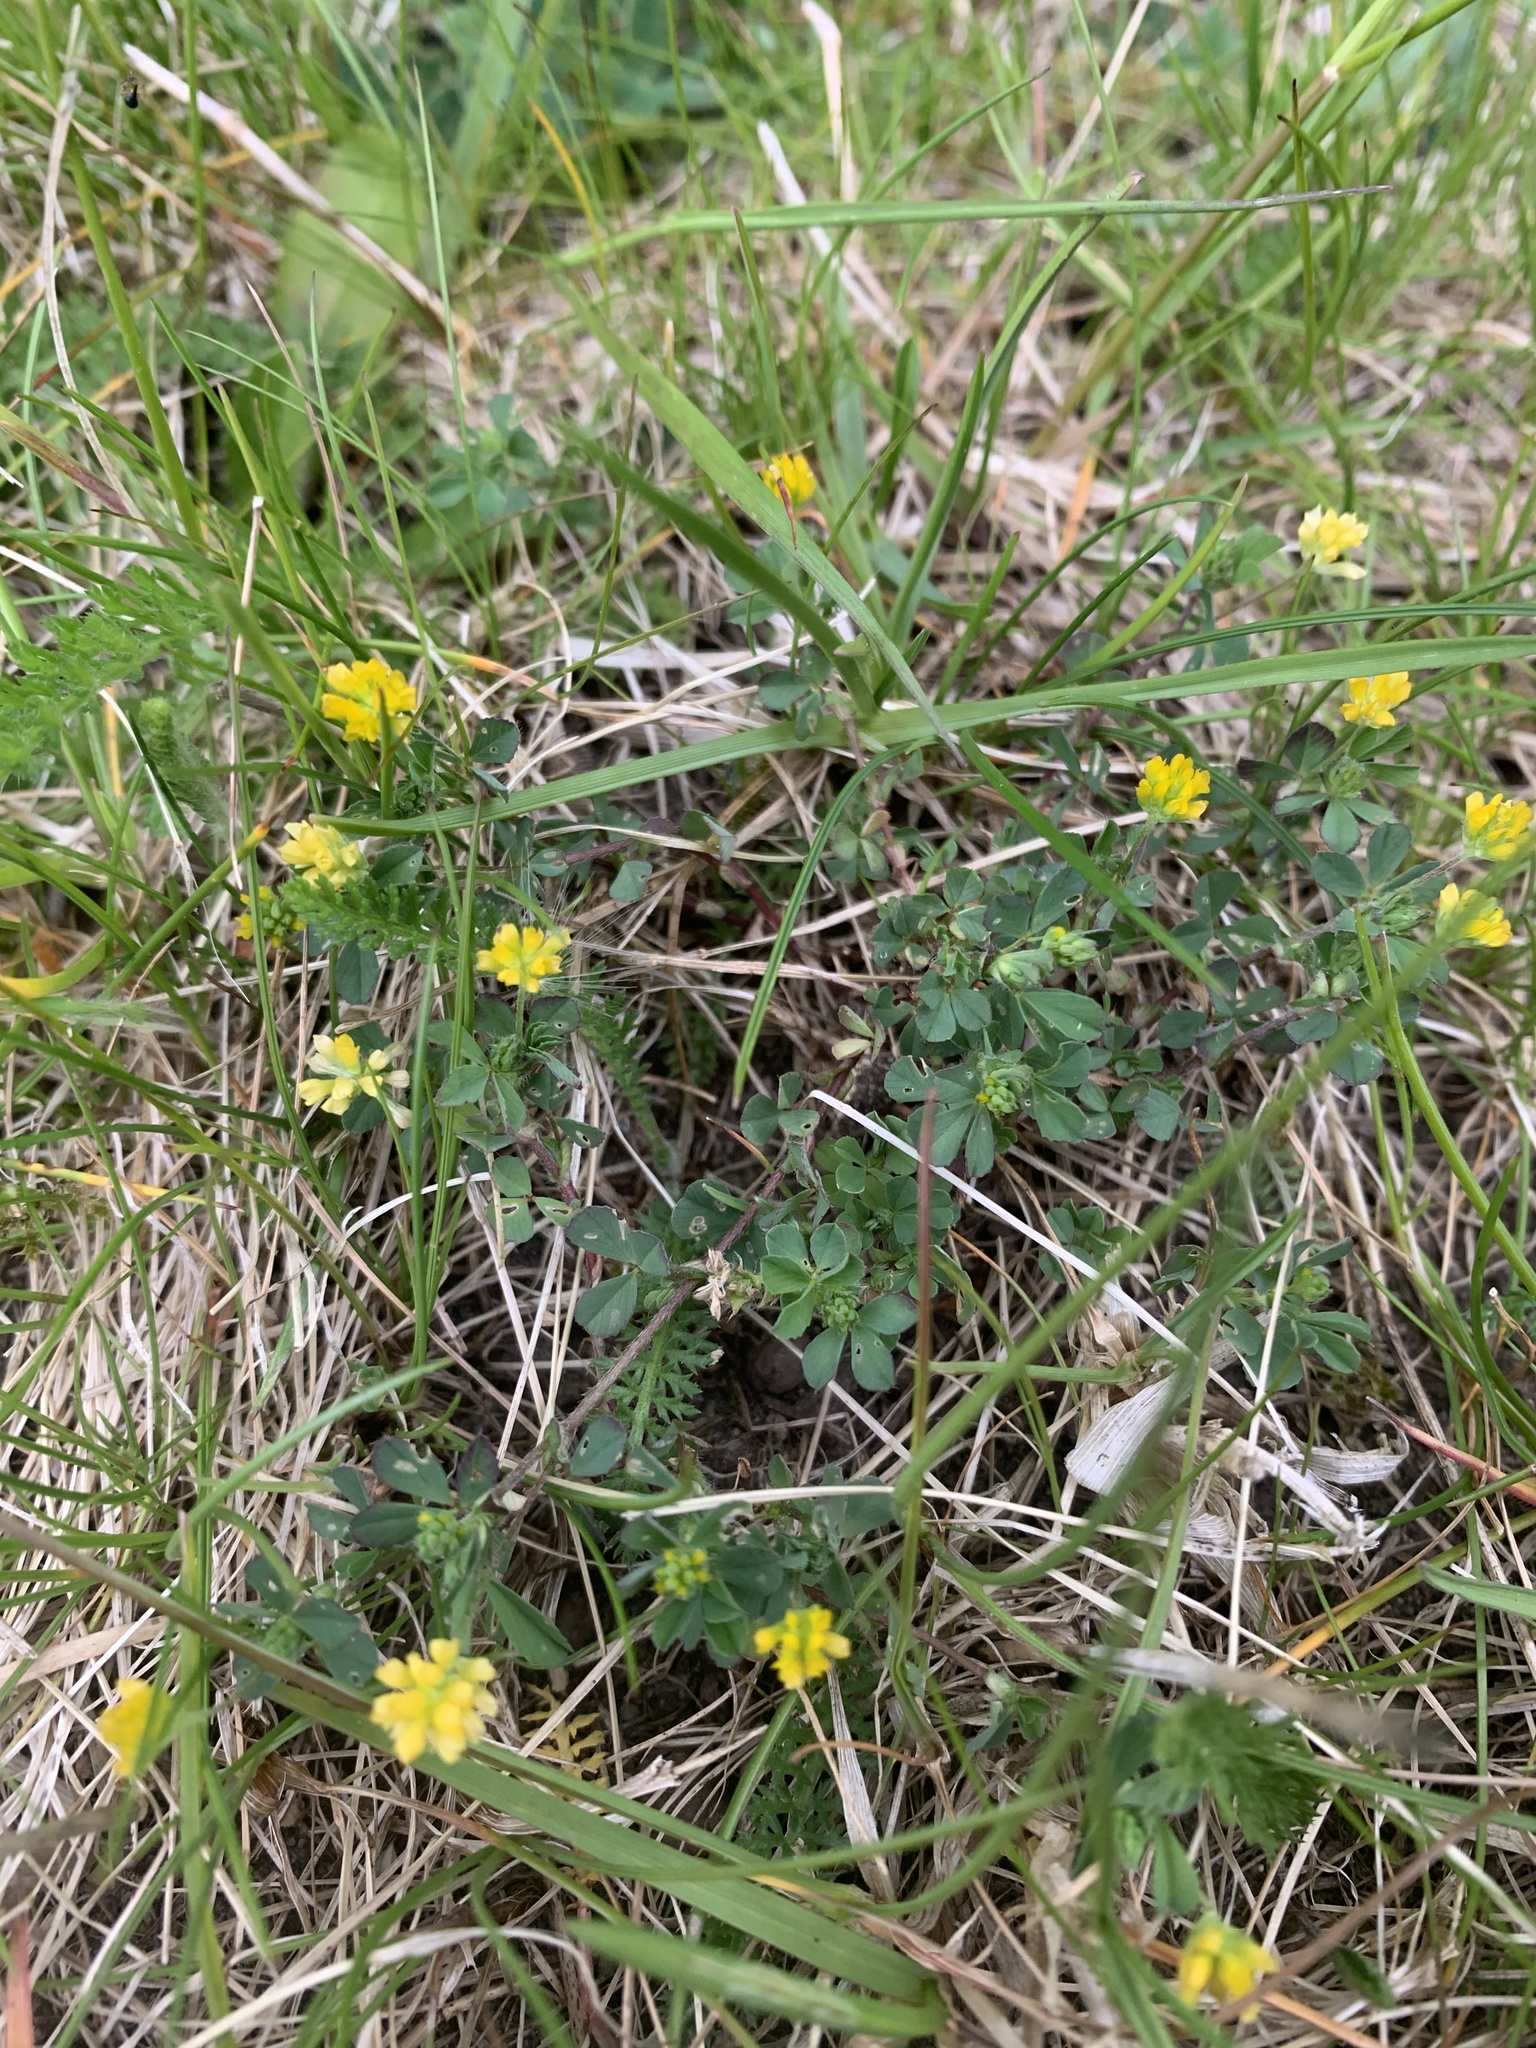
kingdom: Plantae
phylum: Tracheophyta
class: Magnoliopsida
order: Fabales
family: Fabaceae
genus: Trifolium
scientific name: Trifolium dubium
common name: Suckling clover
